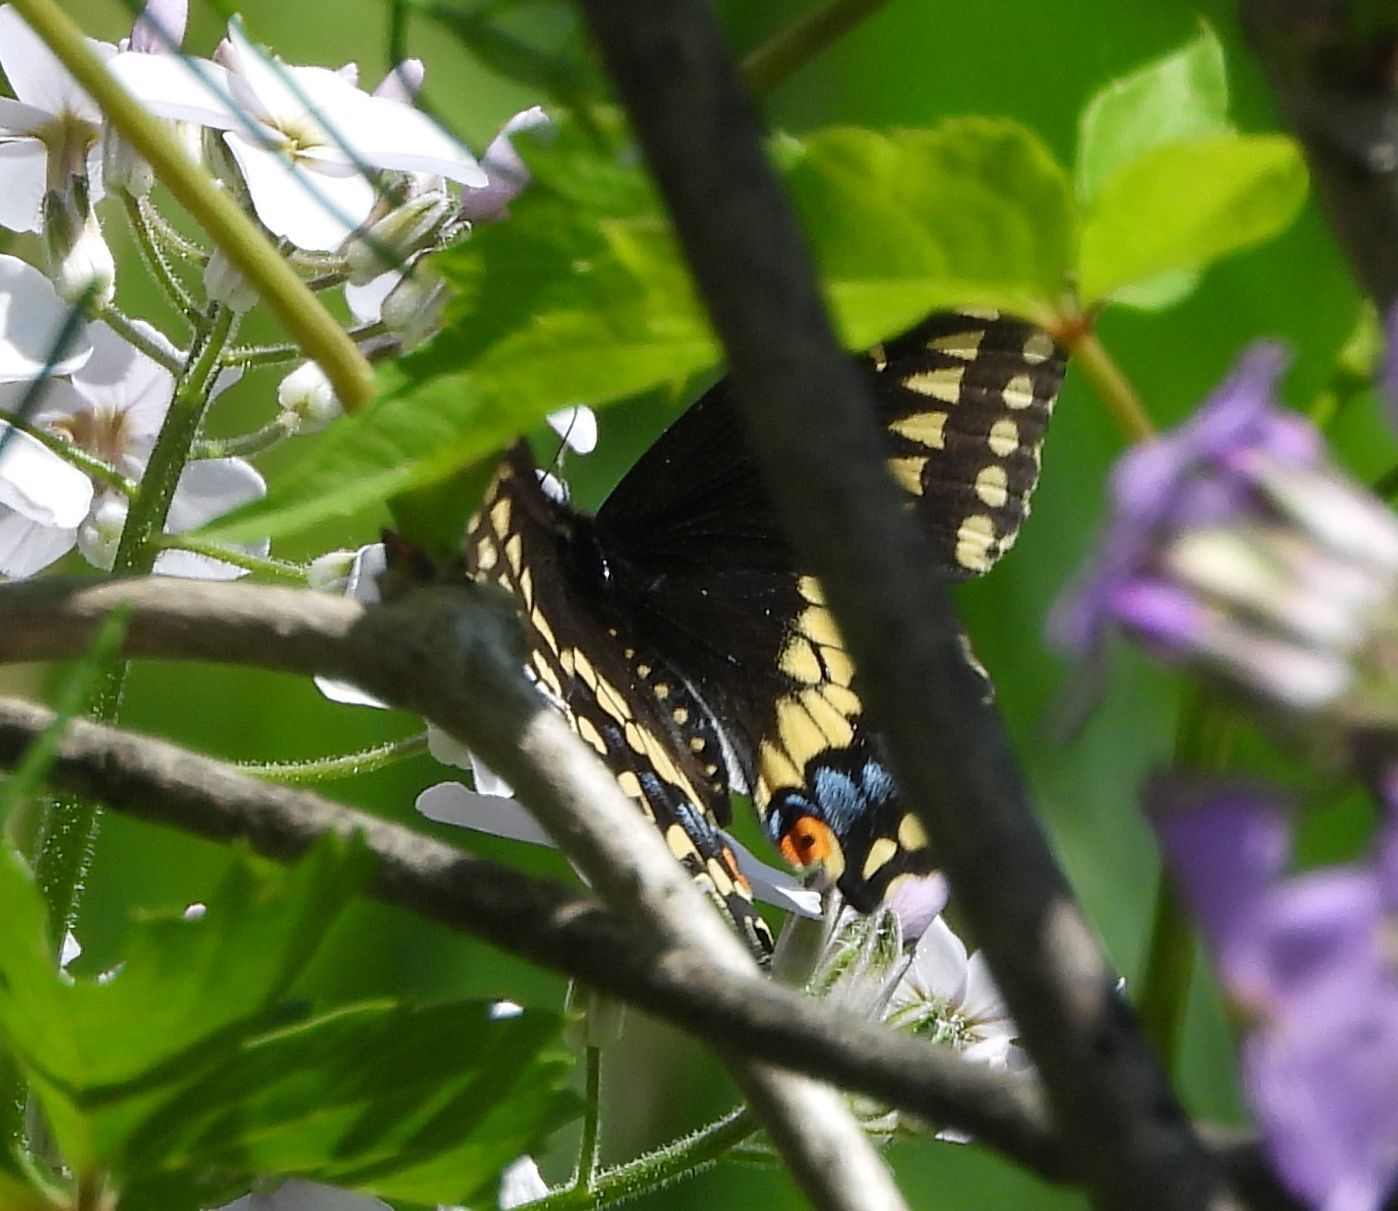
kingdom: Animalia
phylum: Arthropoda
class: Insecta
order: Lepidoptera
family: Papilionidae
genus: Papilio
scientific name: Papilio polyxenes
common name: Black swallowtail
